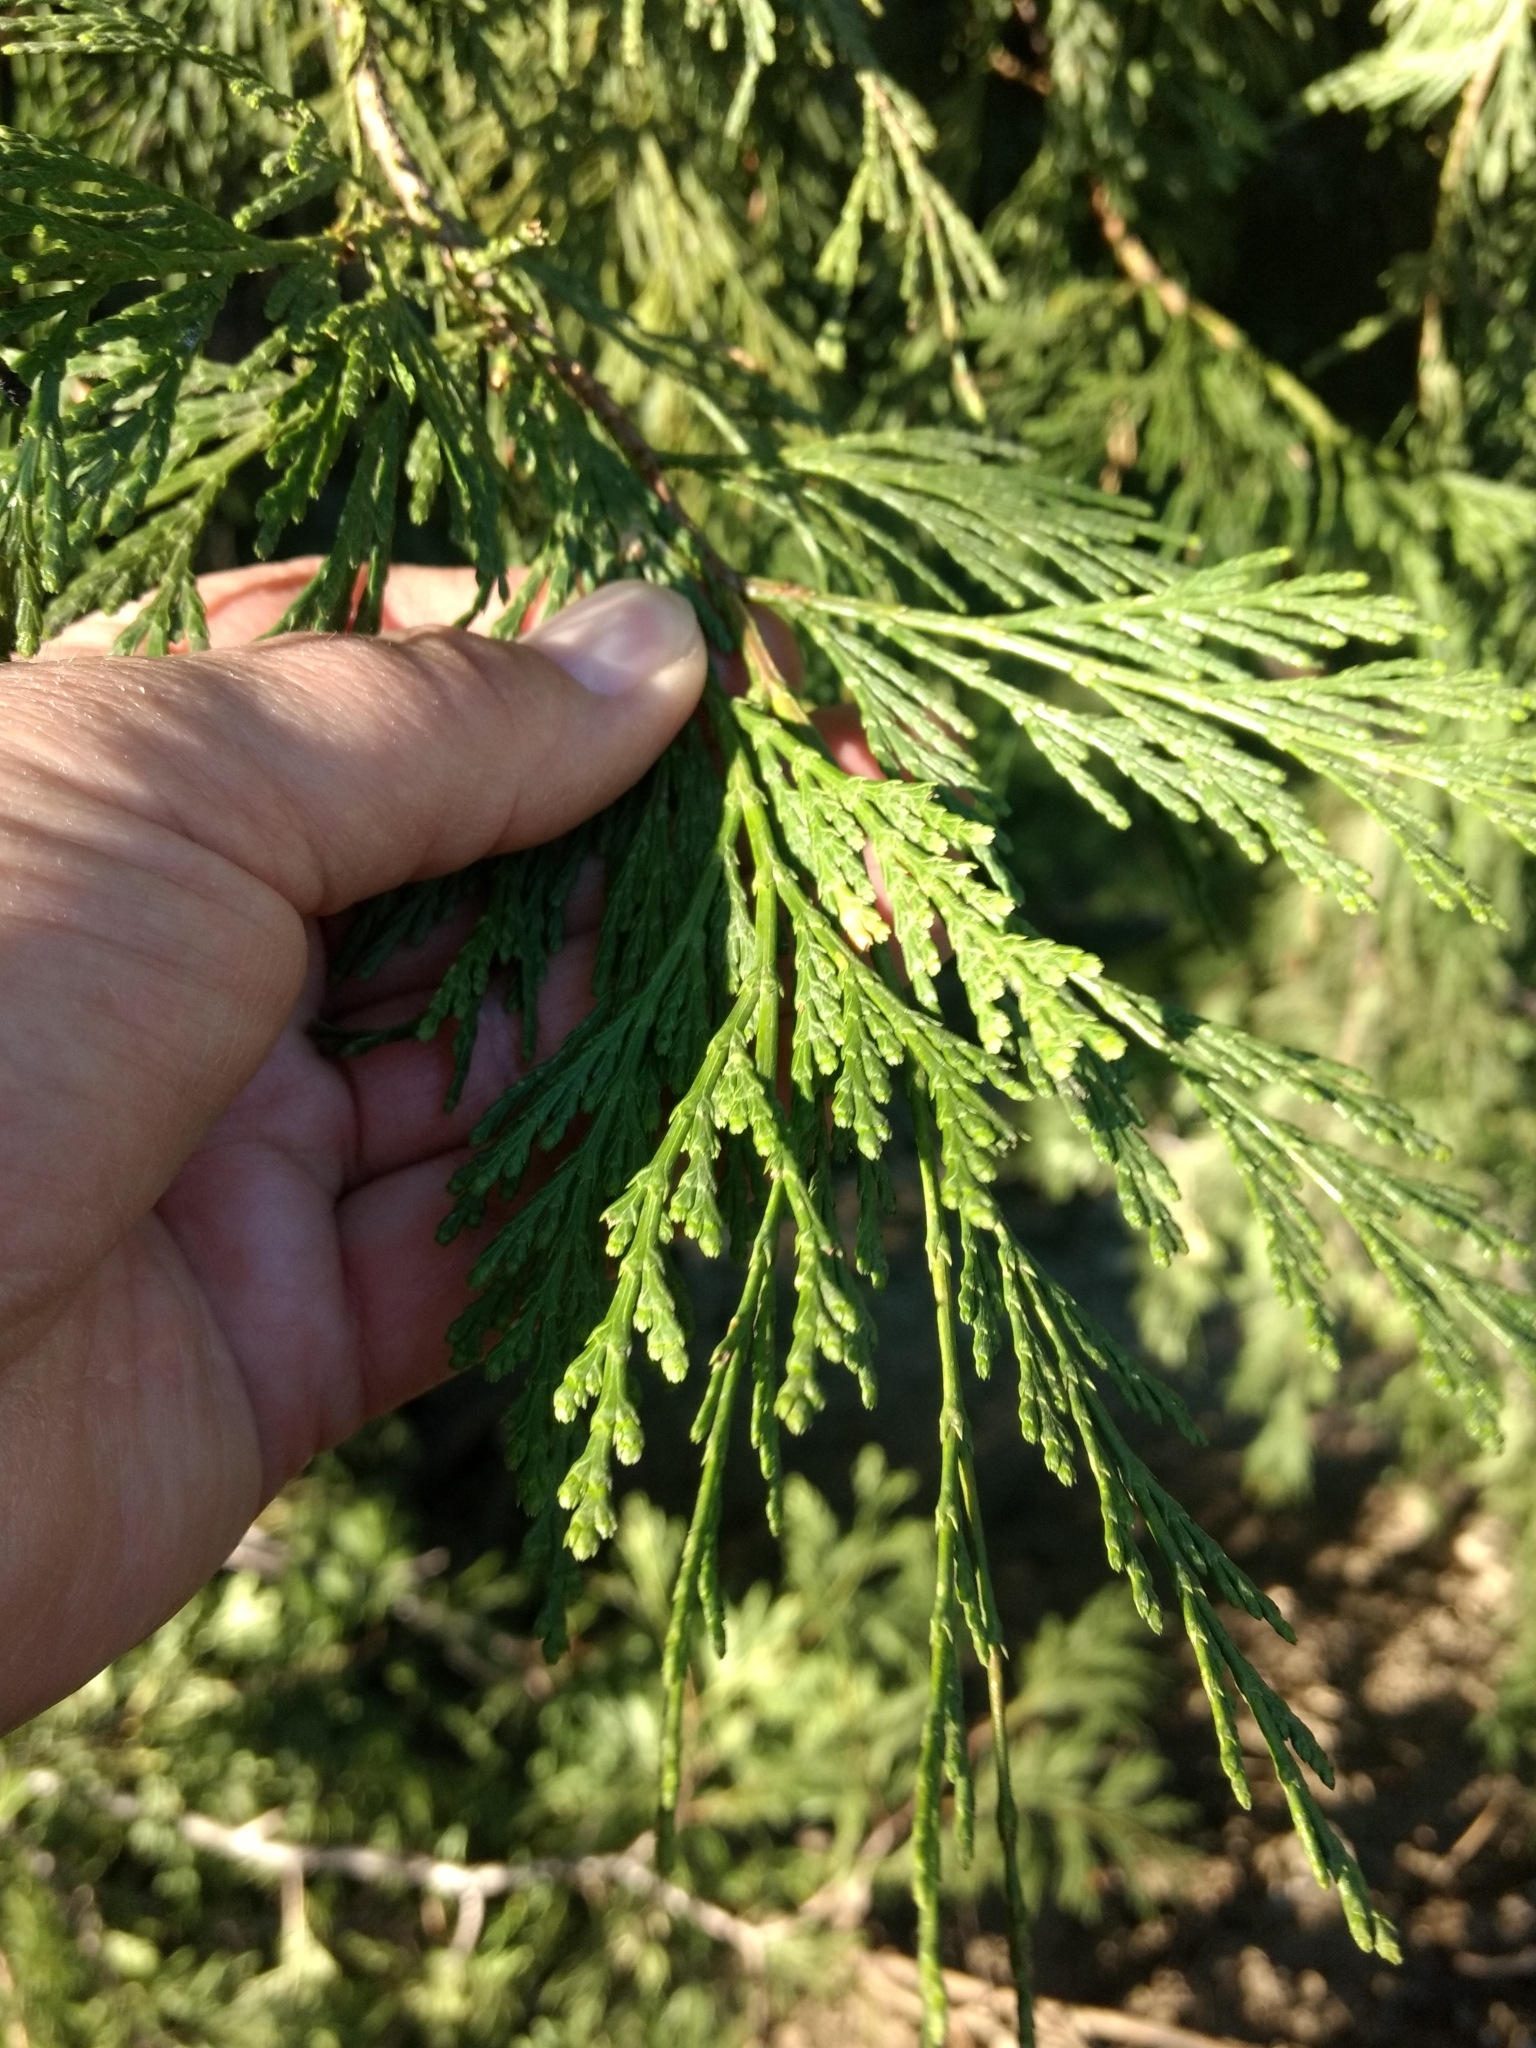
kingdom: Plantae
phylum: Tracheophyta
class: Pinopsida
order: Pinales
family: Cupressaceae
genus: Calocedrus
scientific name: Calocedrus decurrens
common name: Californian incense-cedar
